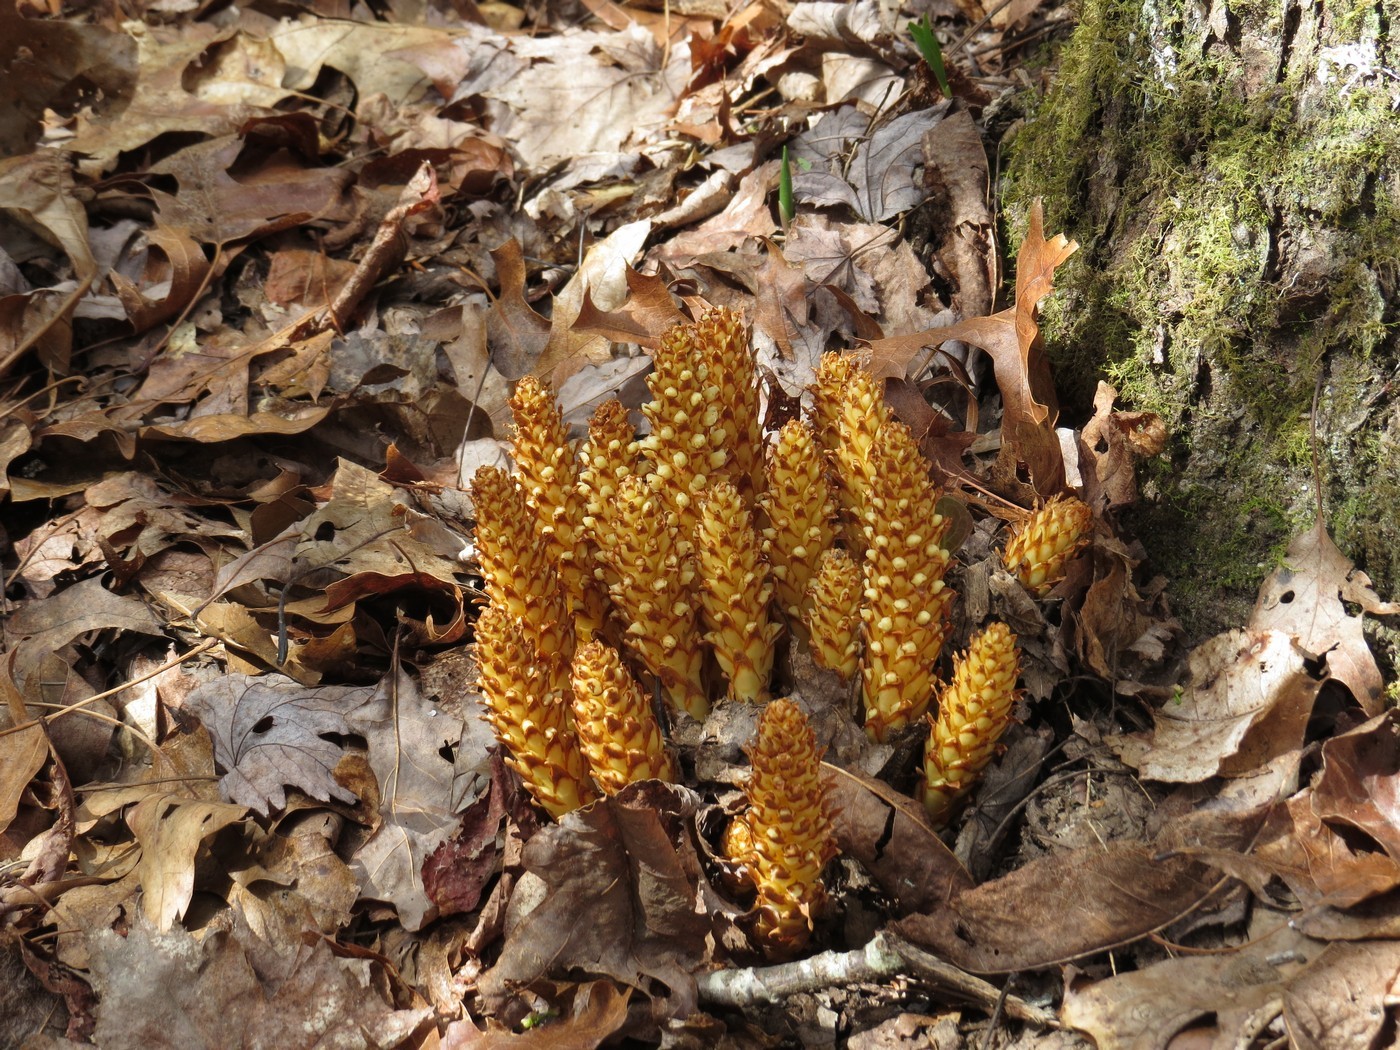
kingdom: Plantae
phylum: Tracheophyta
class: Magnoliopsida
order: Lamiales
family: Orobanchaceae
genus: Conopholis
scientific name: Conopholis americana
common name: American cancer-root
